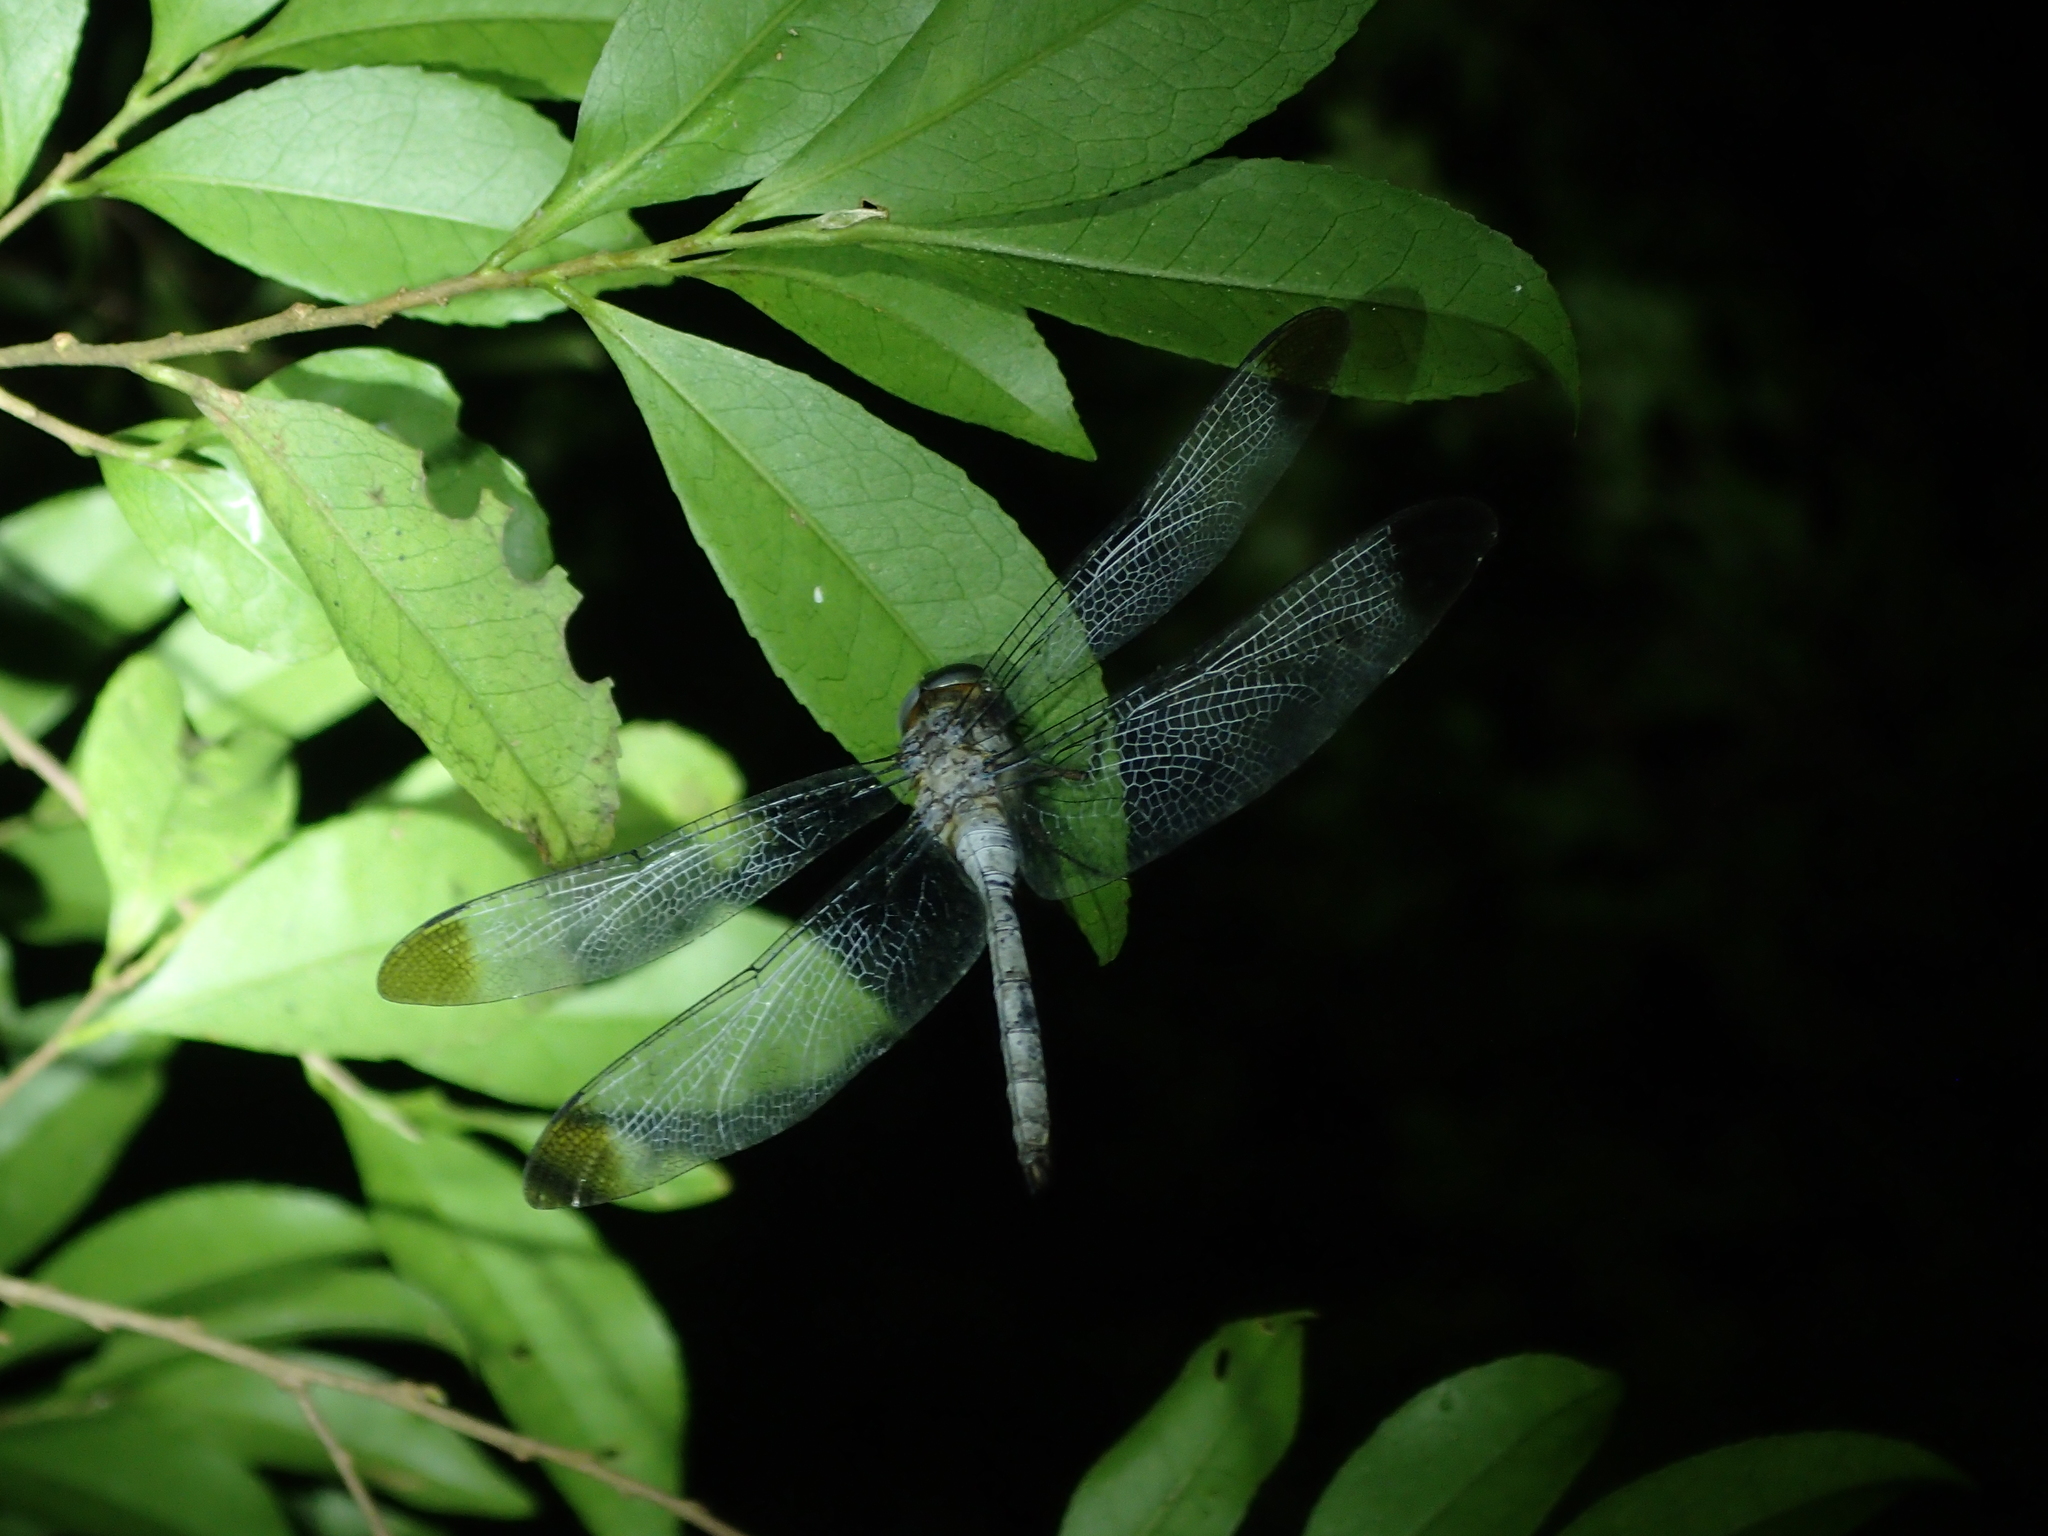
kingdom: Animalia
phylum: Arthropoda
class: Insecta
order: Odonata
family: Libellulidae
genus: Zyxomma
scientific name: Zyxomma obtusum
